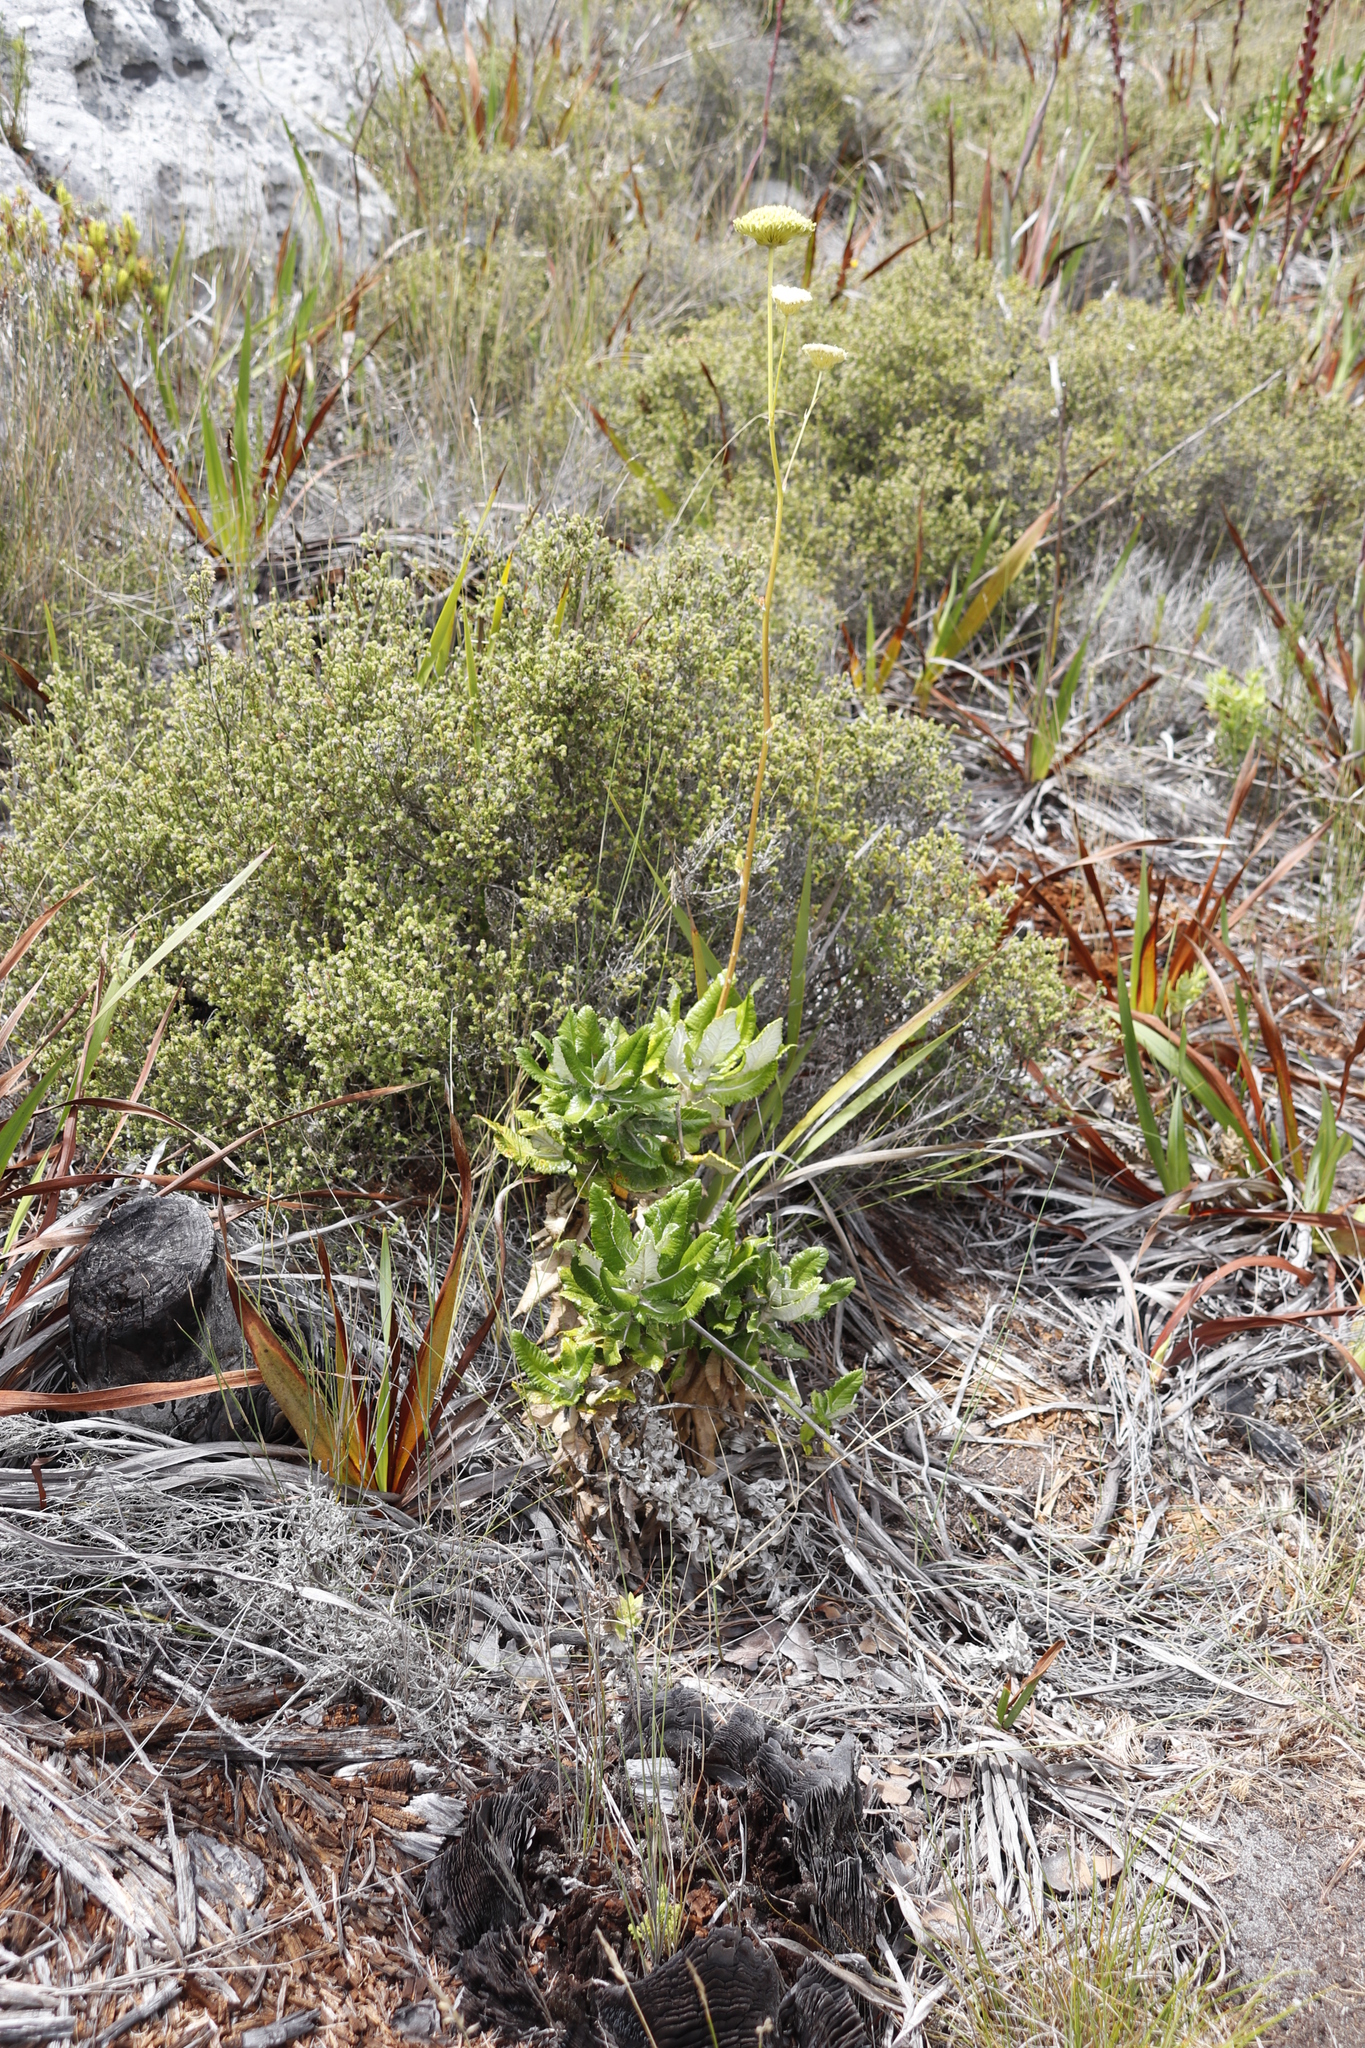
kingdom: Plantae
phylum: Tracheophyta
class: Magnoliopsida
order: Apiales
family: Apiaceae
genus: Hermas
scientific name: Hermas villosa
